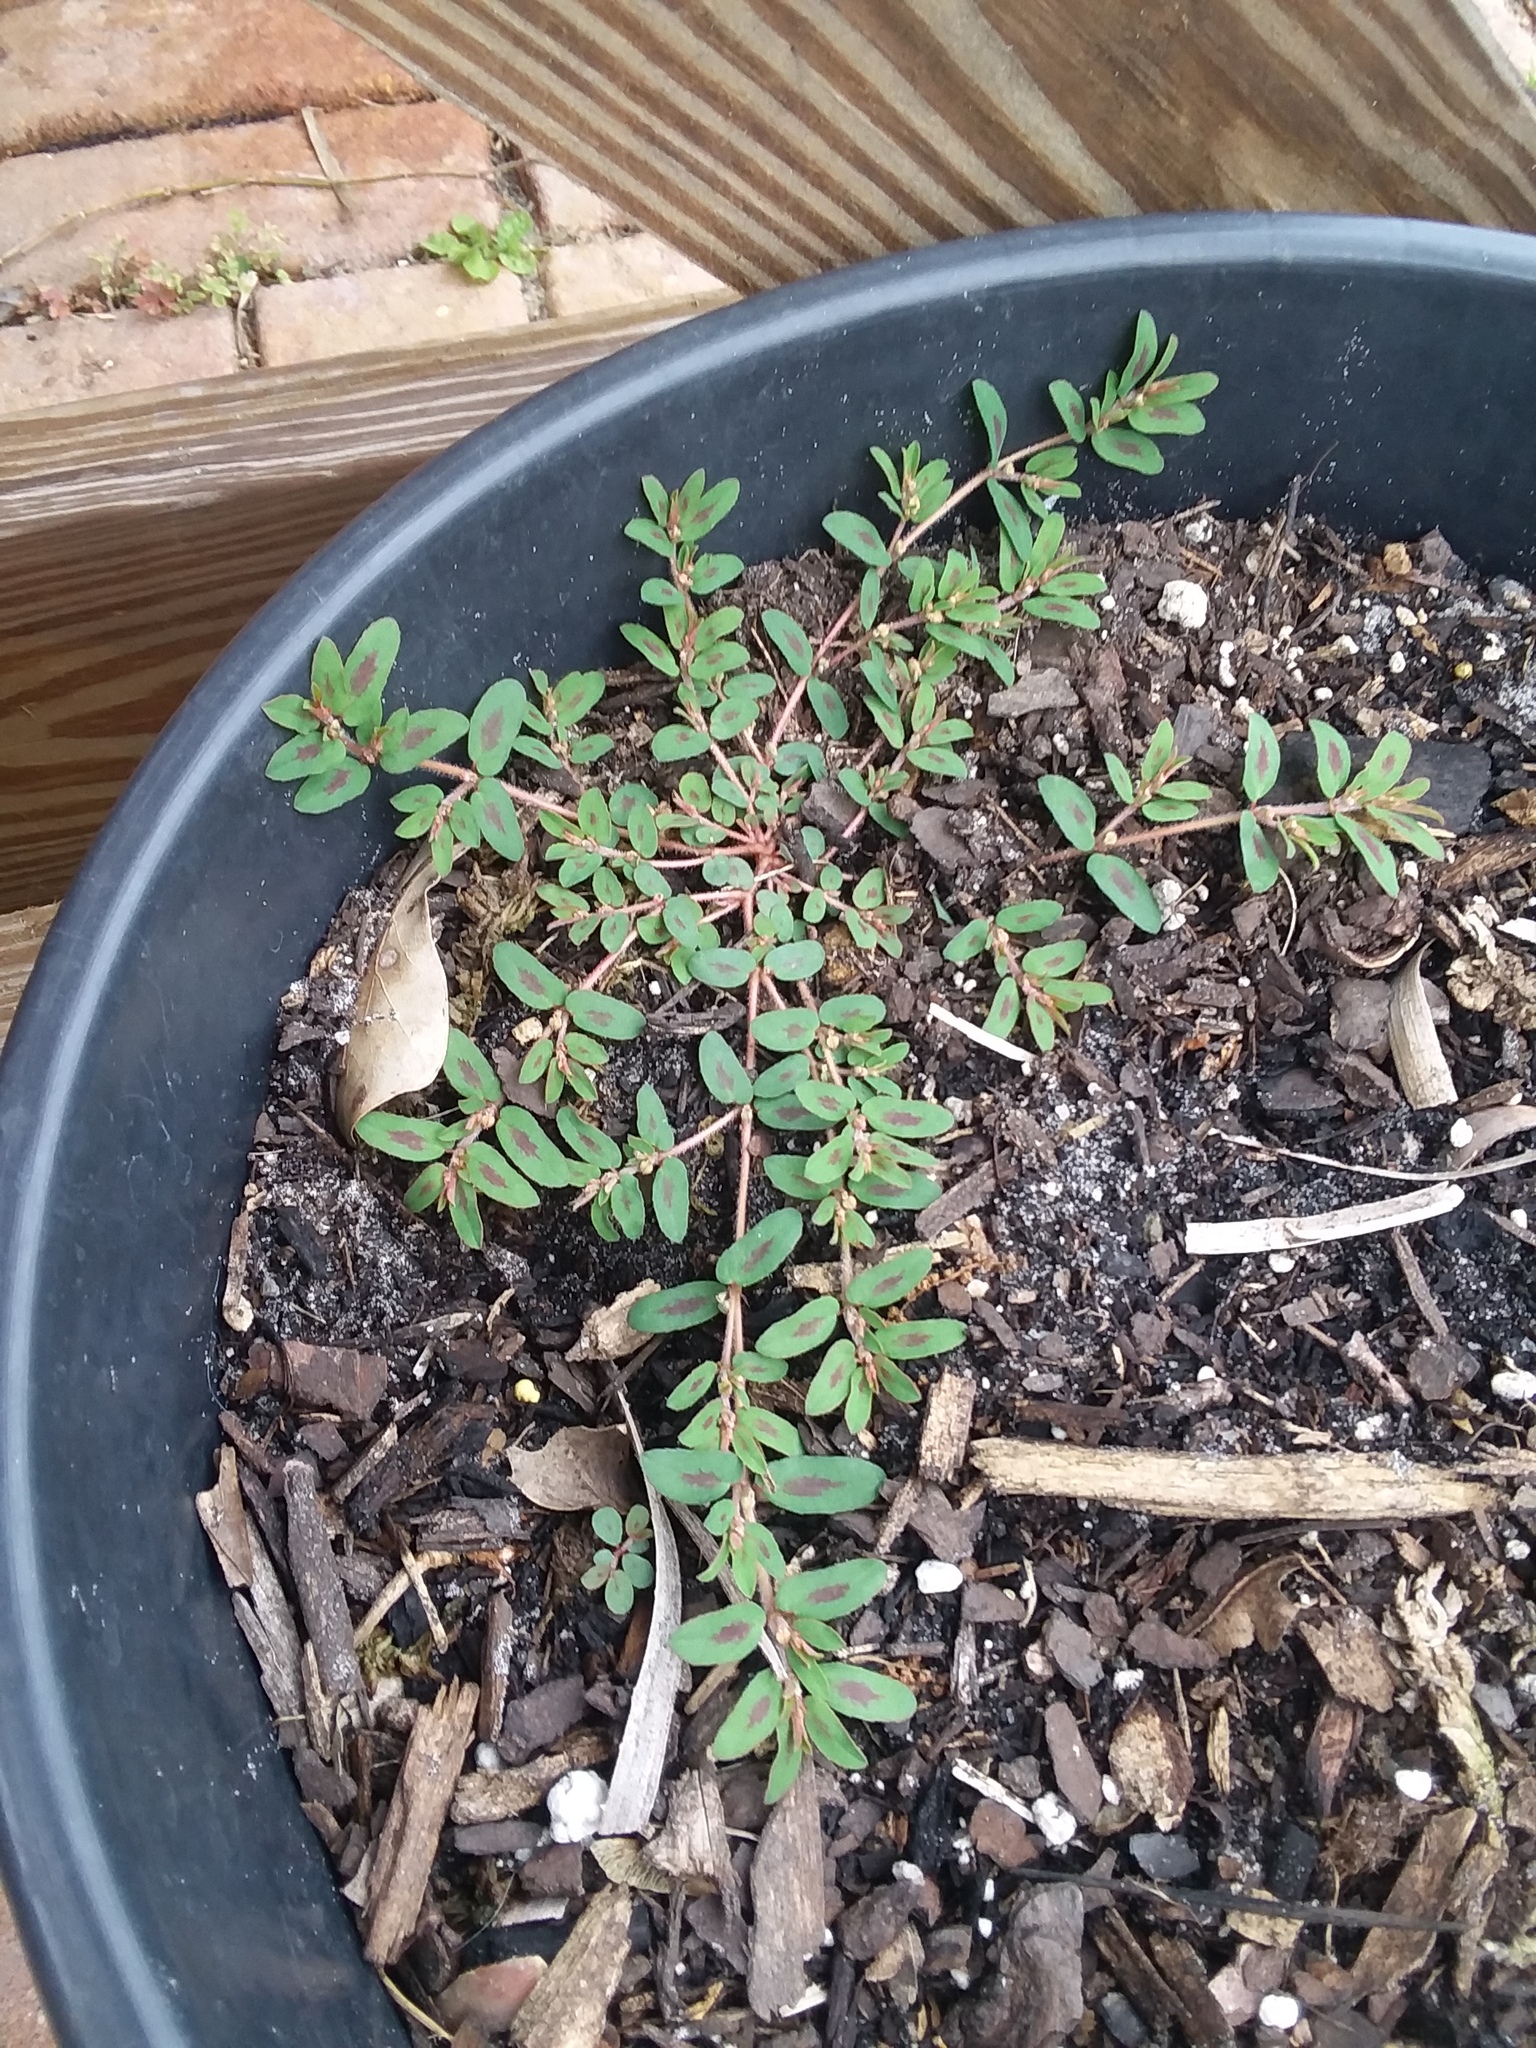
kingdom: Plantae
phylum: Tracheophyta
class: Magnoliopsida
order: Malpighiales
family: Euphorbiaceae
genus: Euphorbia
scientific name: Euphorbia maculata
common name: Spotted spurge
